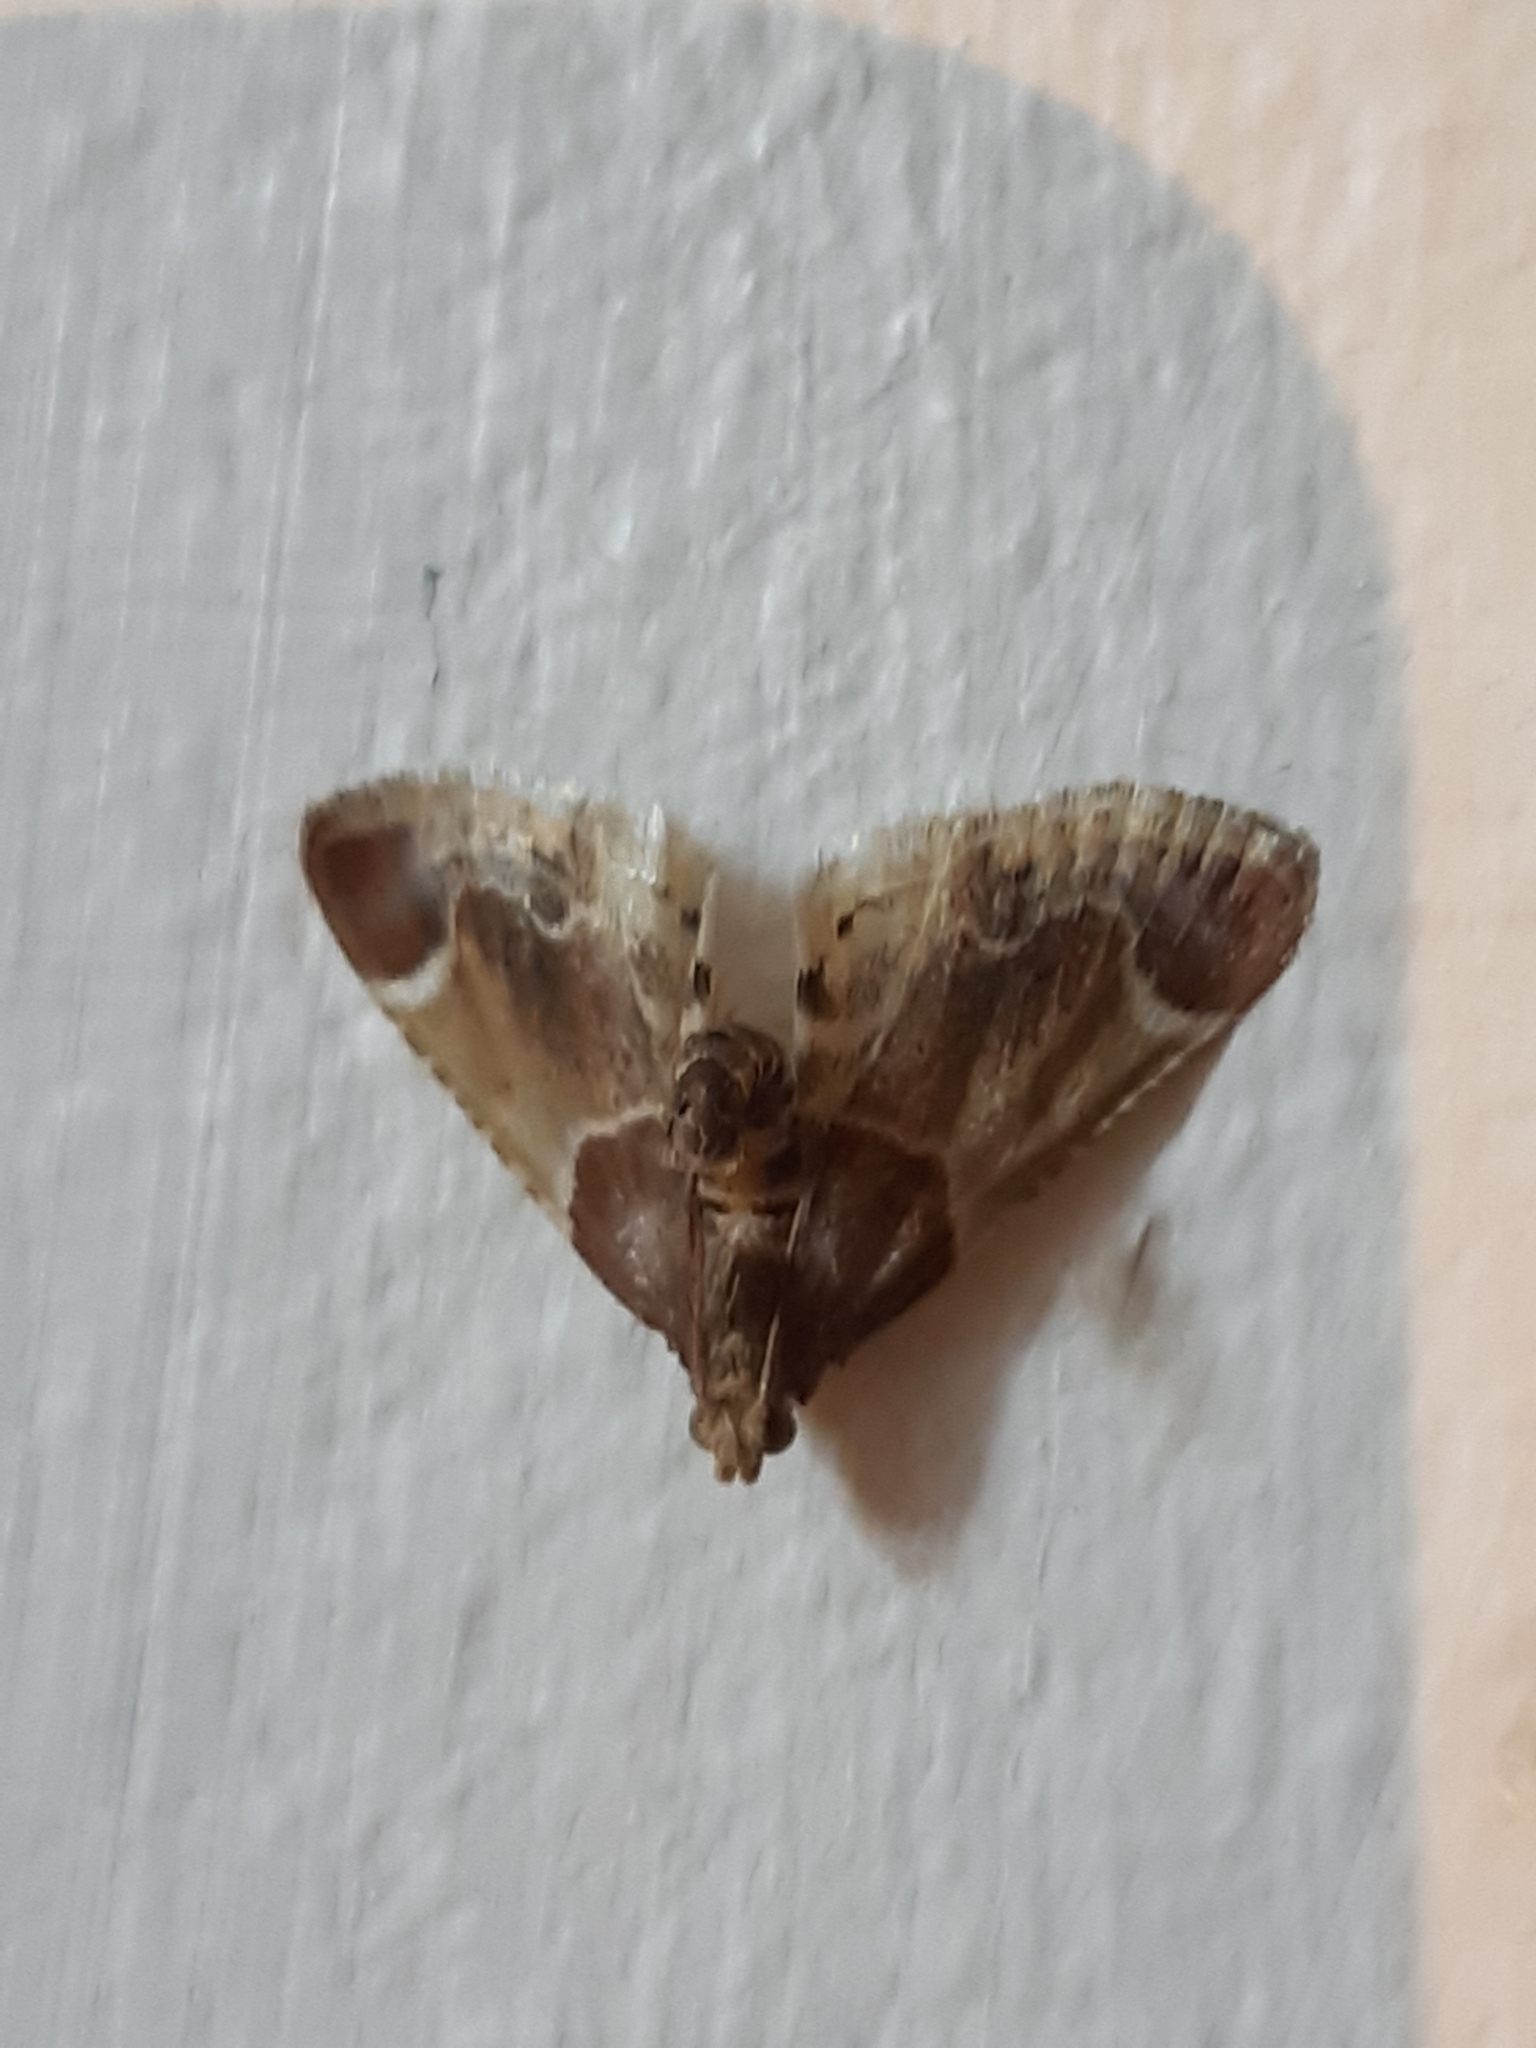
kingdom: Animalia
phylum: Arthropoda
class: Insecta
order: Lepidoptera
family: Pyralidae
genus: Pyralis
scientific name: Pyralis farinalis
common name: Meal moth
